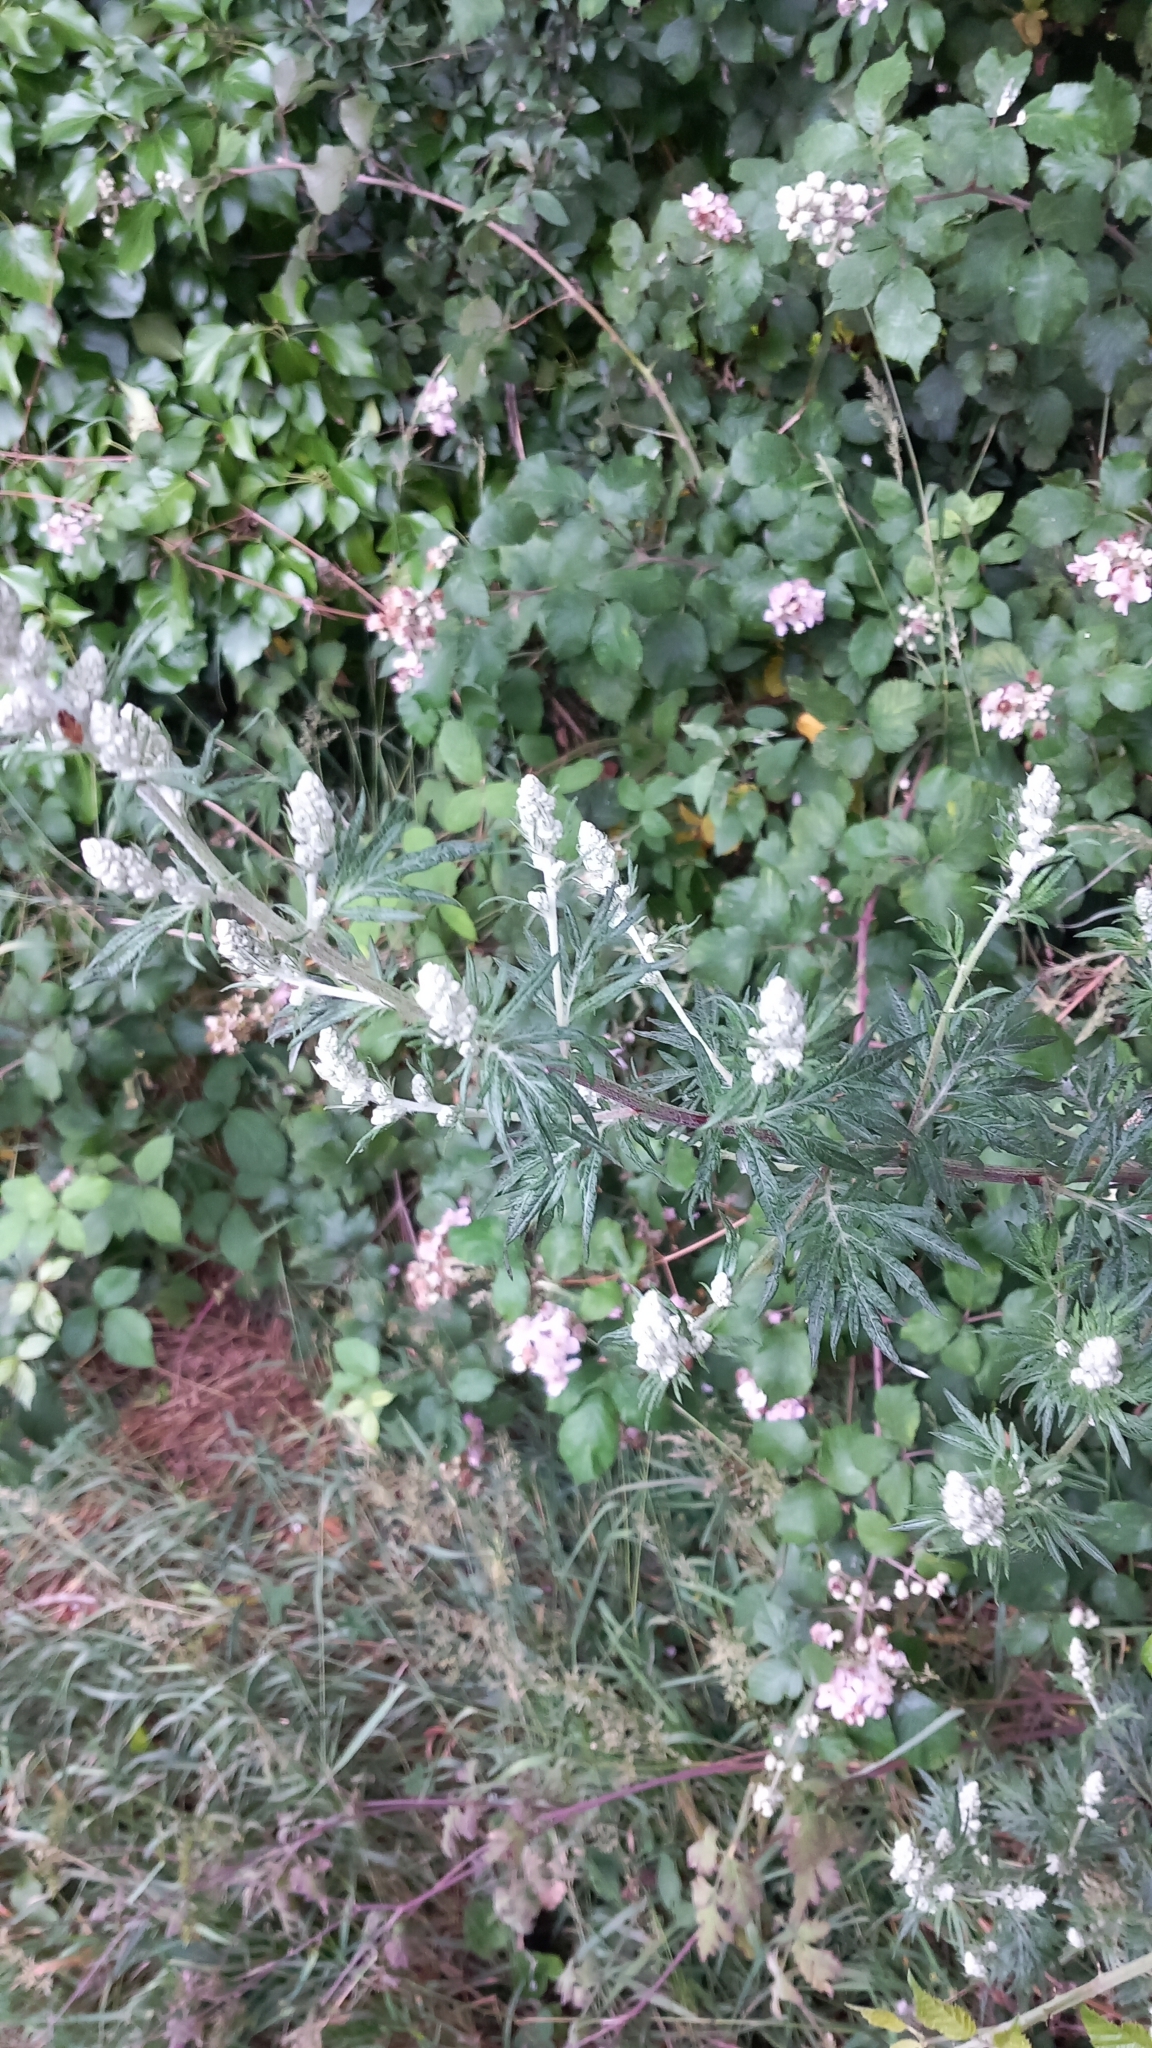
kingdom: Plantae
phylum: Tracheophyta
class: Magnoliopsida
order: Asterales
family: Asteraceae
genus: Artemisia
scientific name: Artemisia vulgaris
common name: Mugwort
